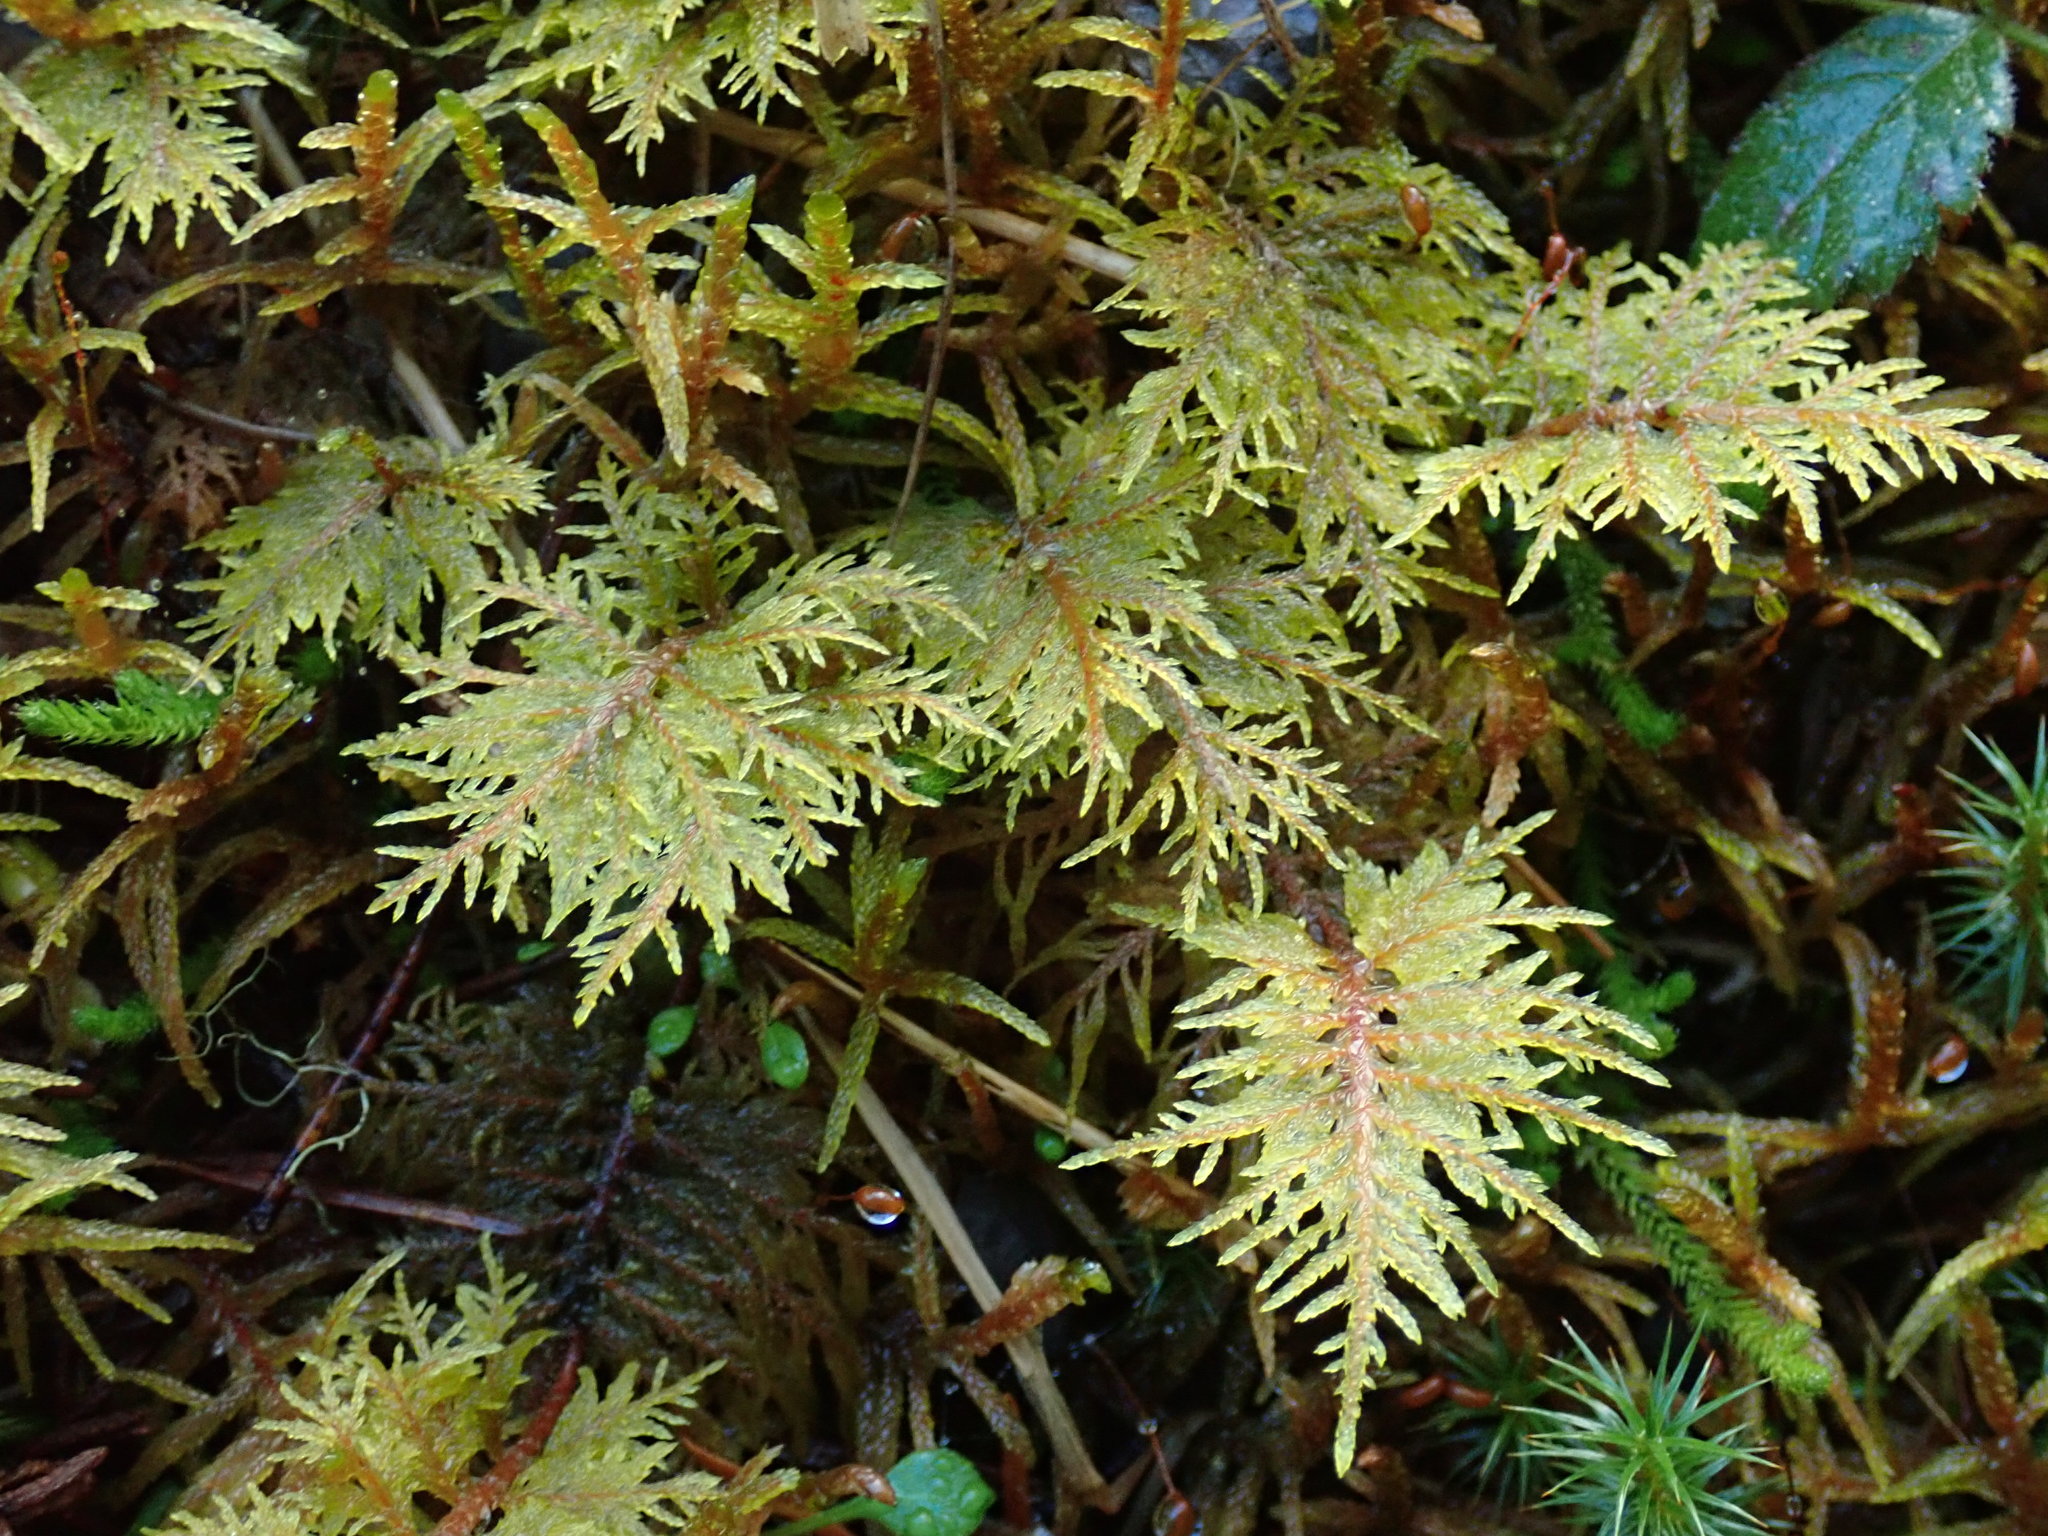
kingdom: Plantae
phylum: Bryophyta
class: Bryopsida
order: Hypnales
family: Hylocomiaceae
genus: Hylocomium
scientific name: Hylocomium splendens
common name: Stairstep moss
